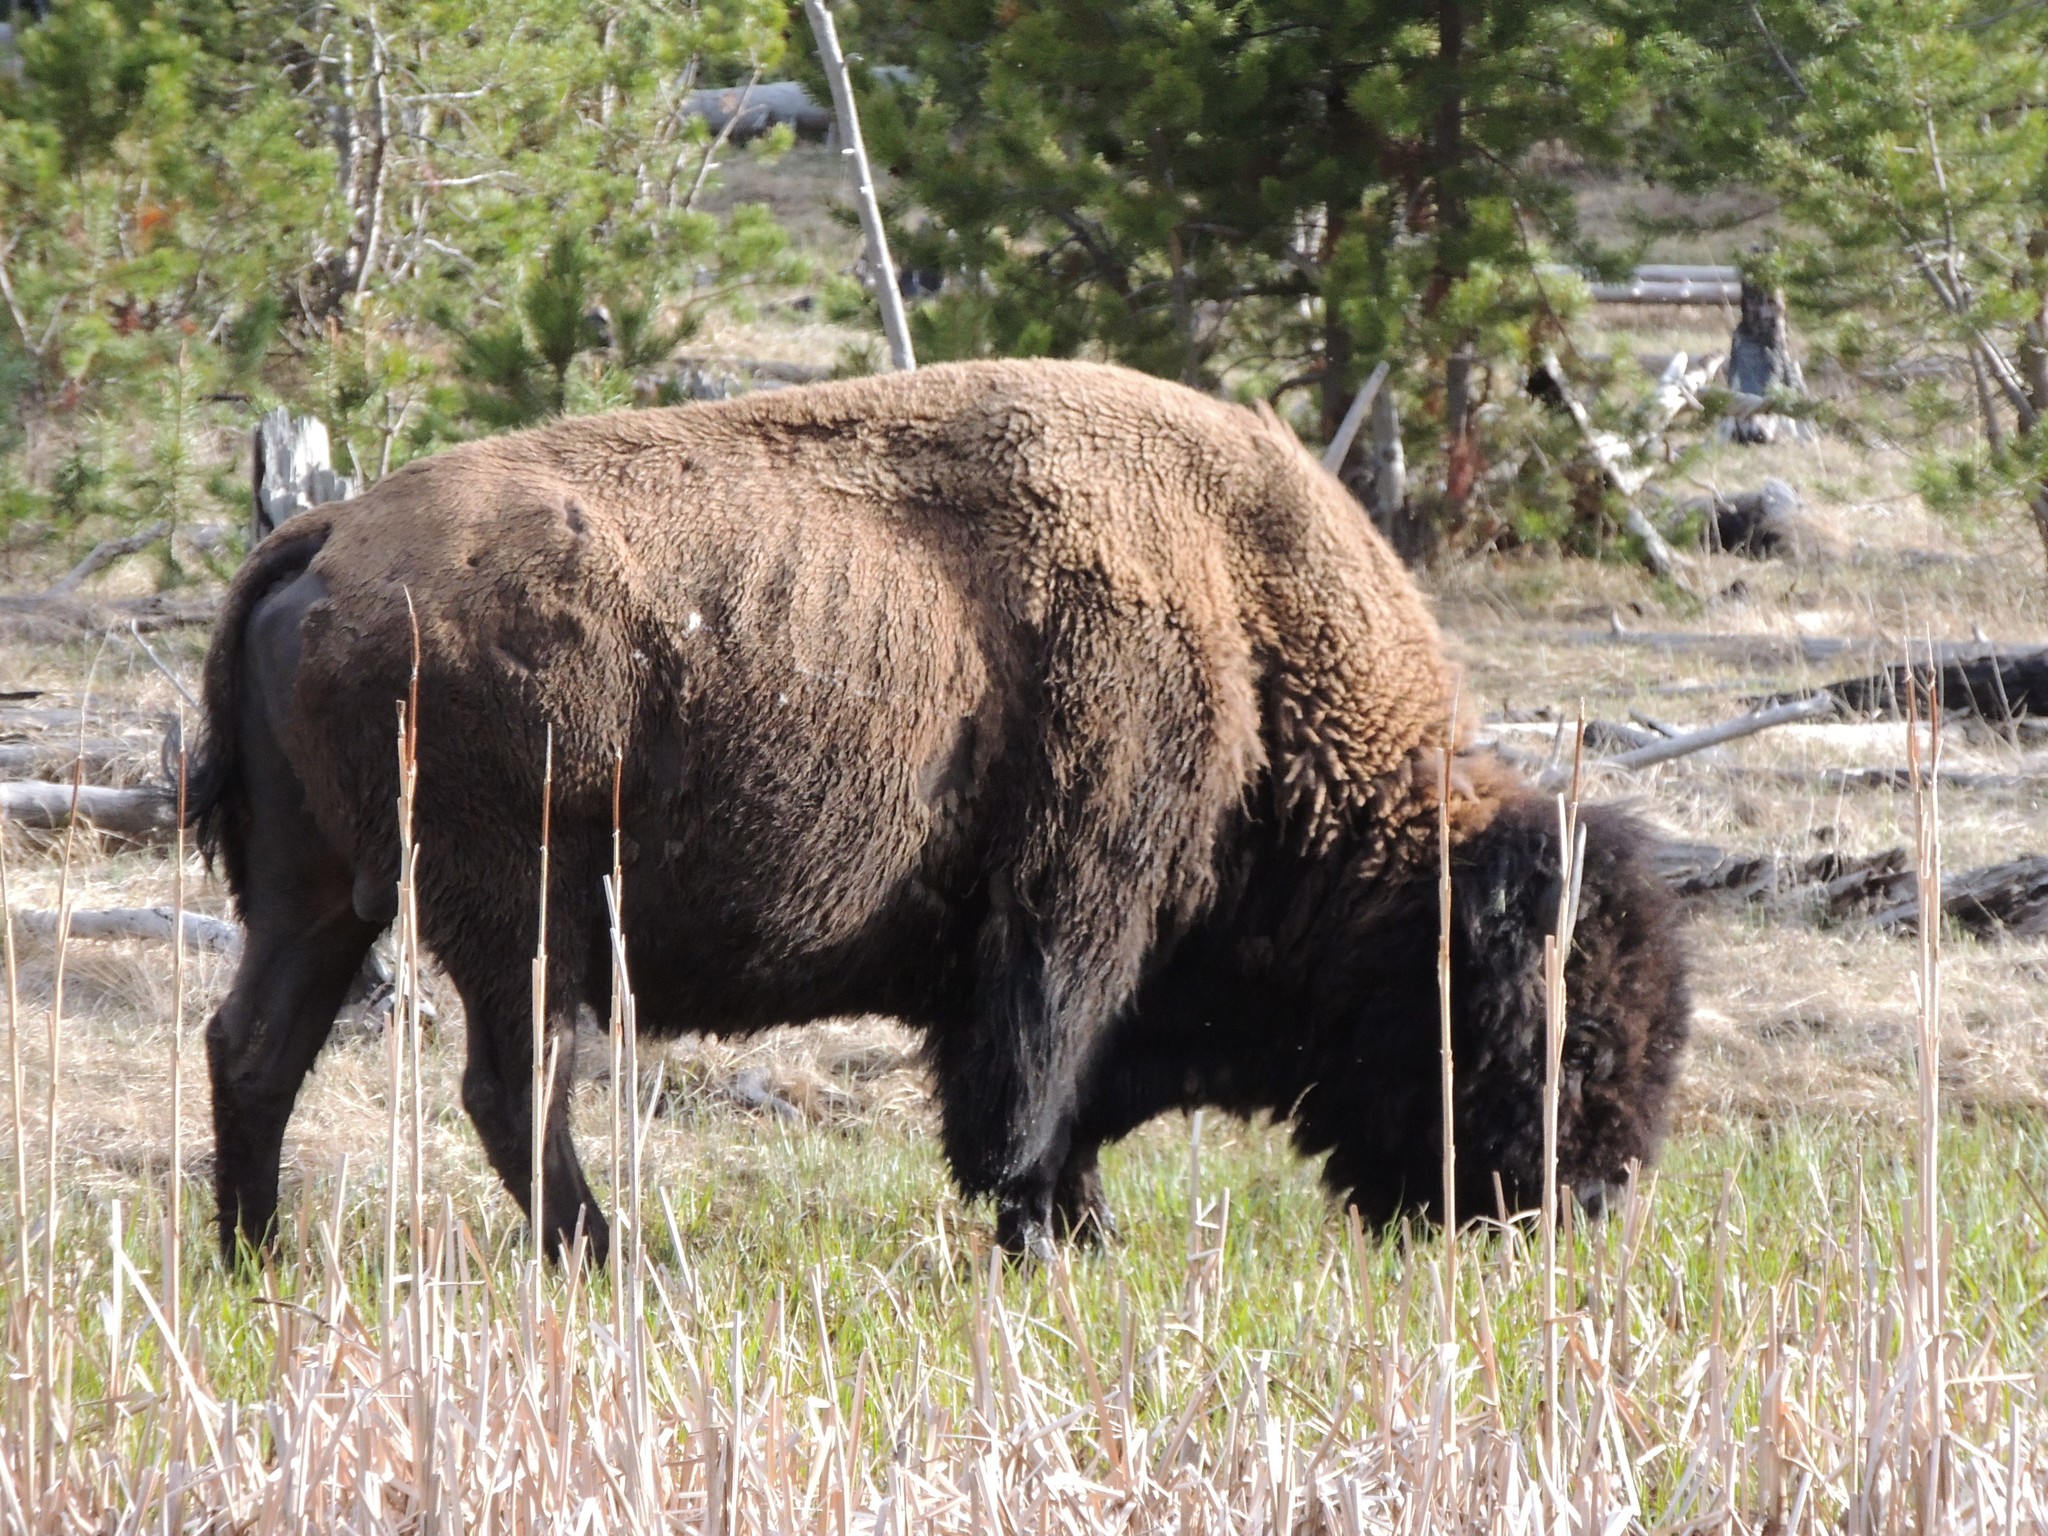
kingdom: Animalia
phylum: Chordata
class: Mammalia
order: Artiodactyla
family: Bovidae
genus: Bison
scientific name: Bison bison
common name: American bison
